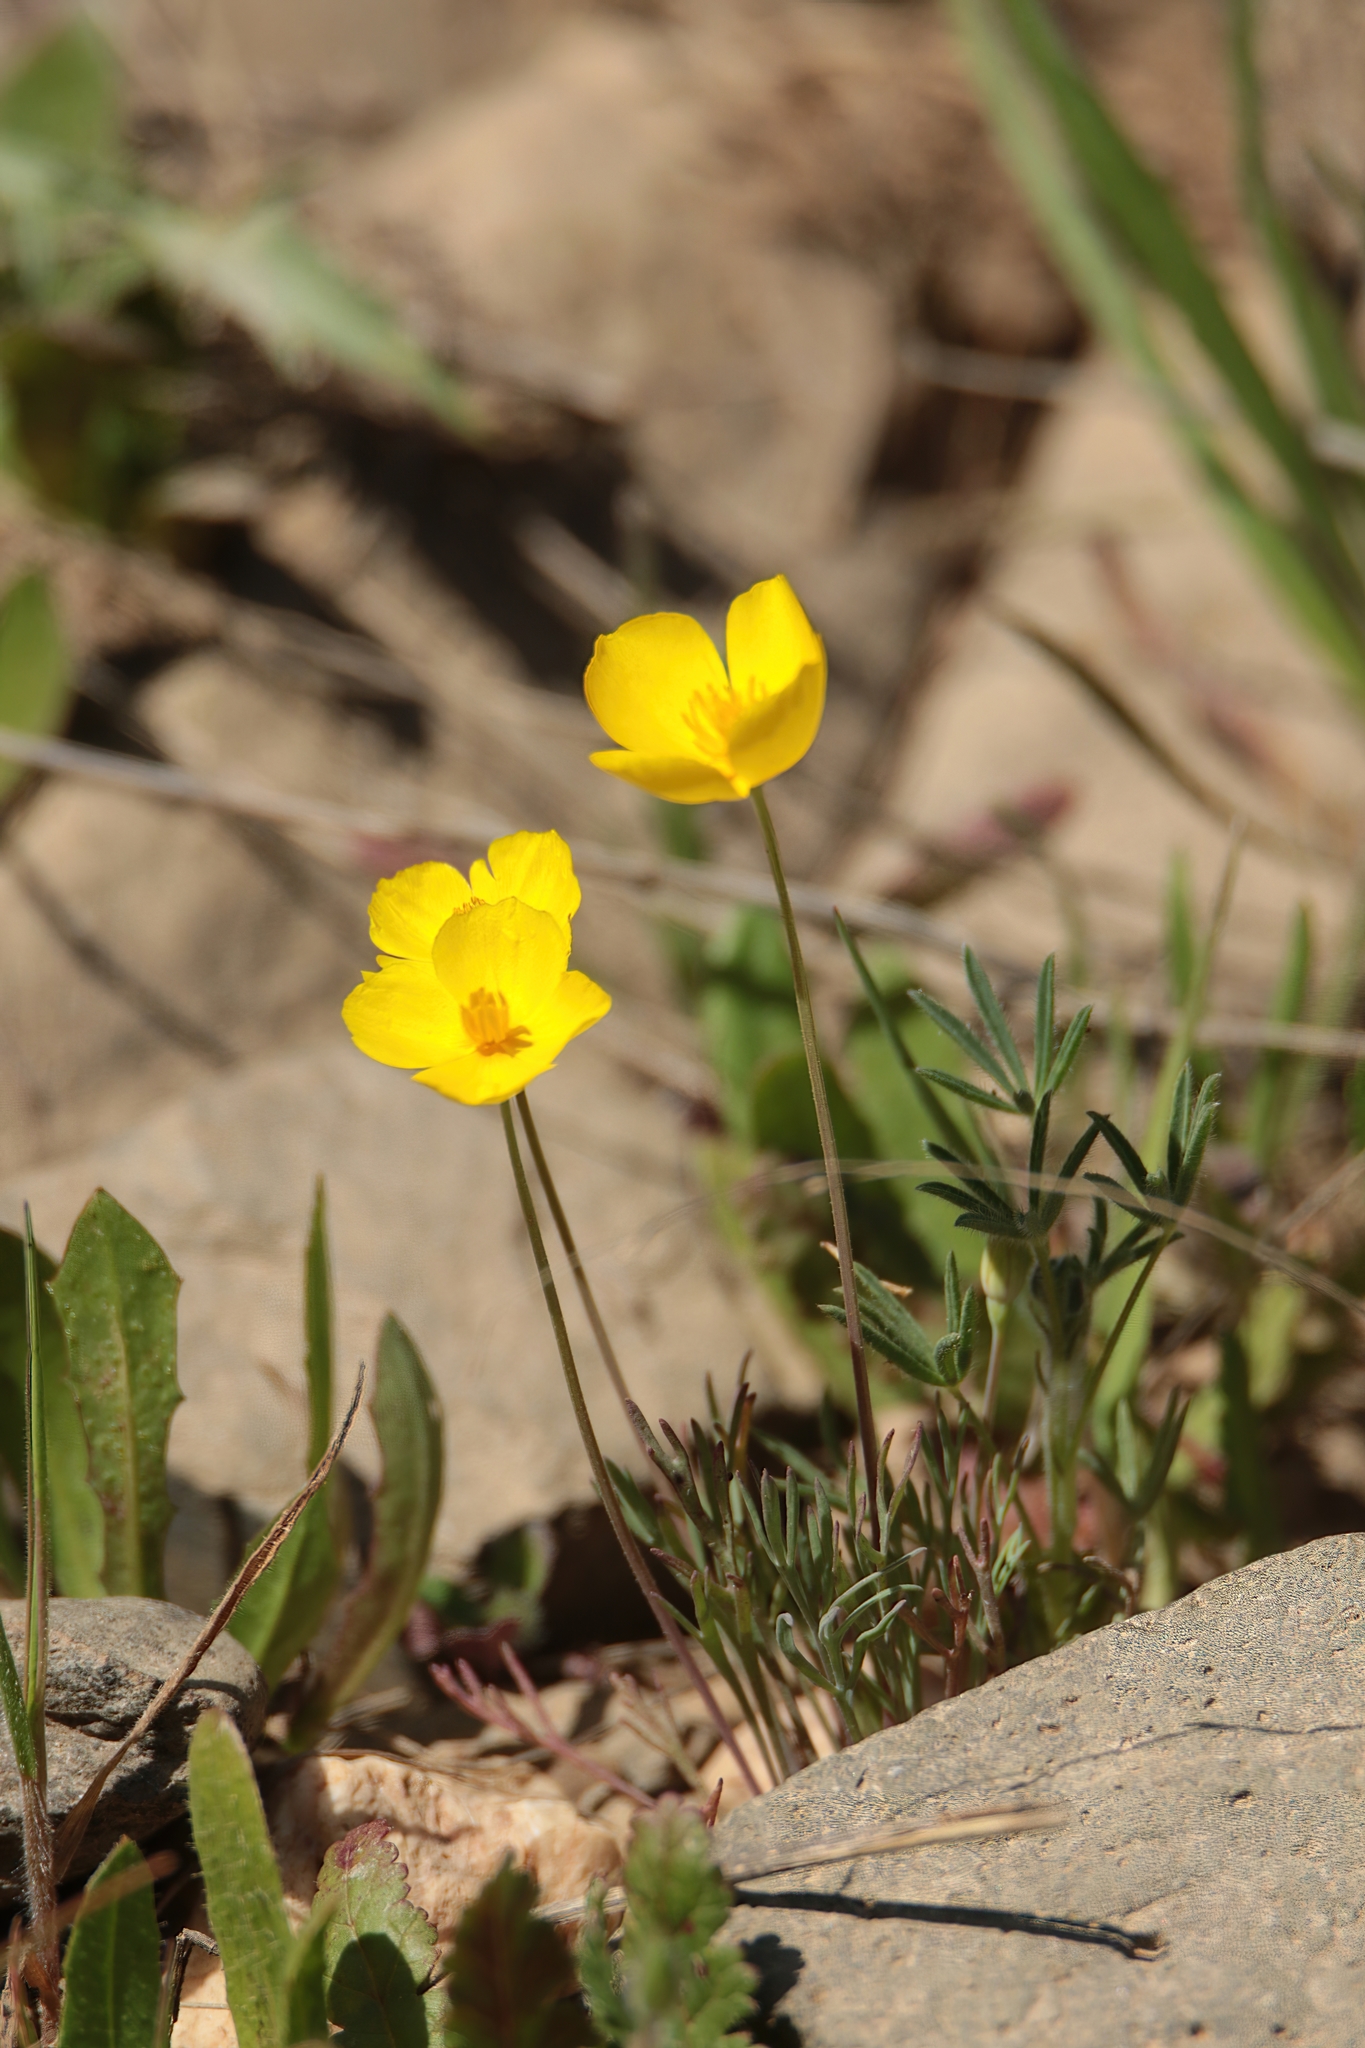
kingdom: Plantae
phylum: Tracheophyta
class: Magnoliopsida
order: Ranunculales
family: Papaveraceae
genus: Eschscholzia
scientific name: Eschscholzia lobbii
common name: Frying-pans
